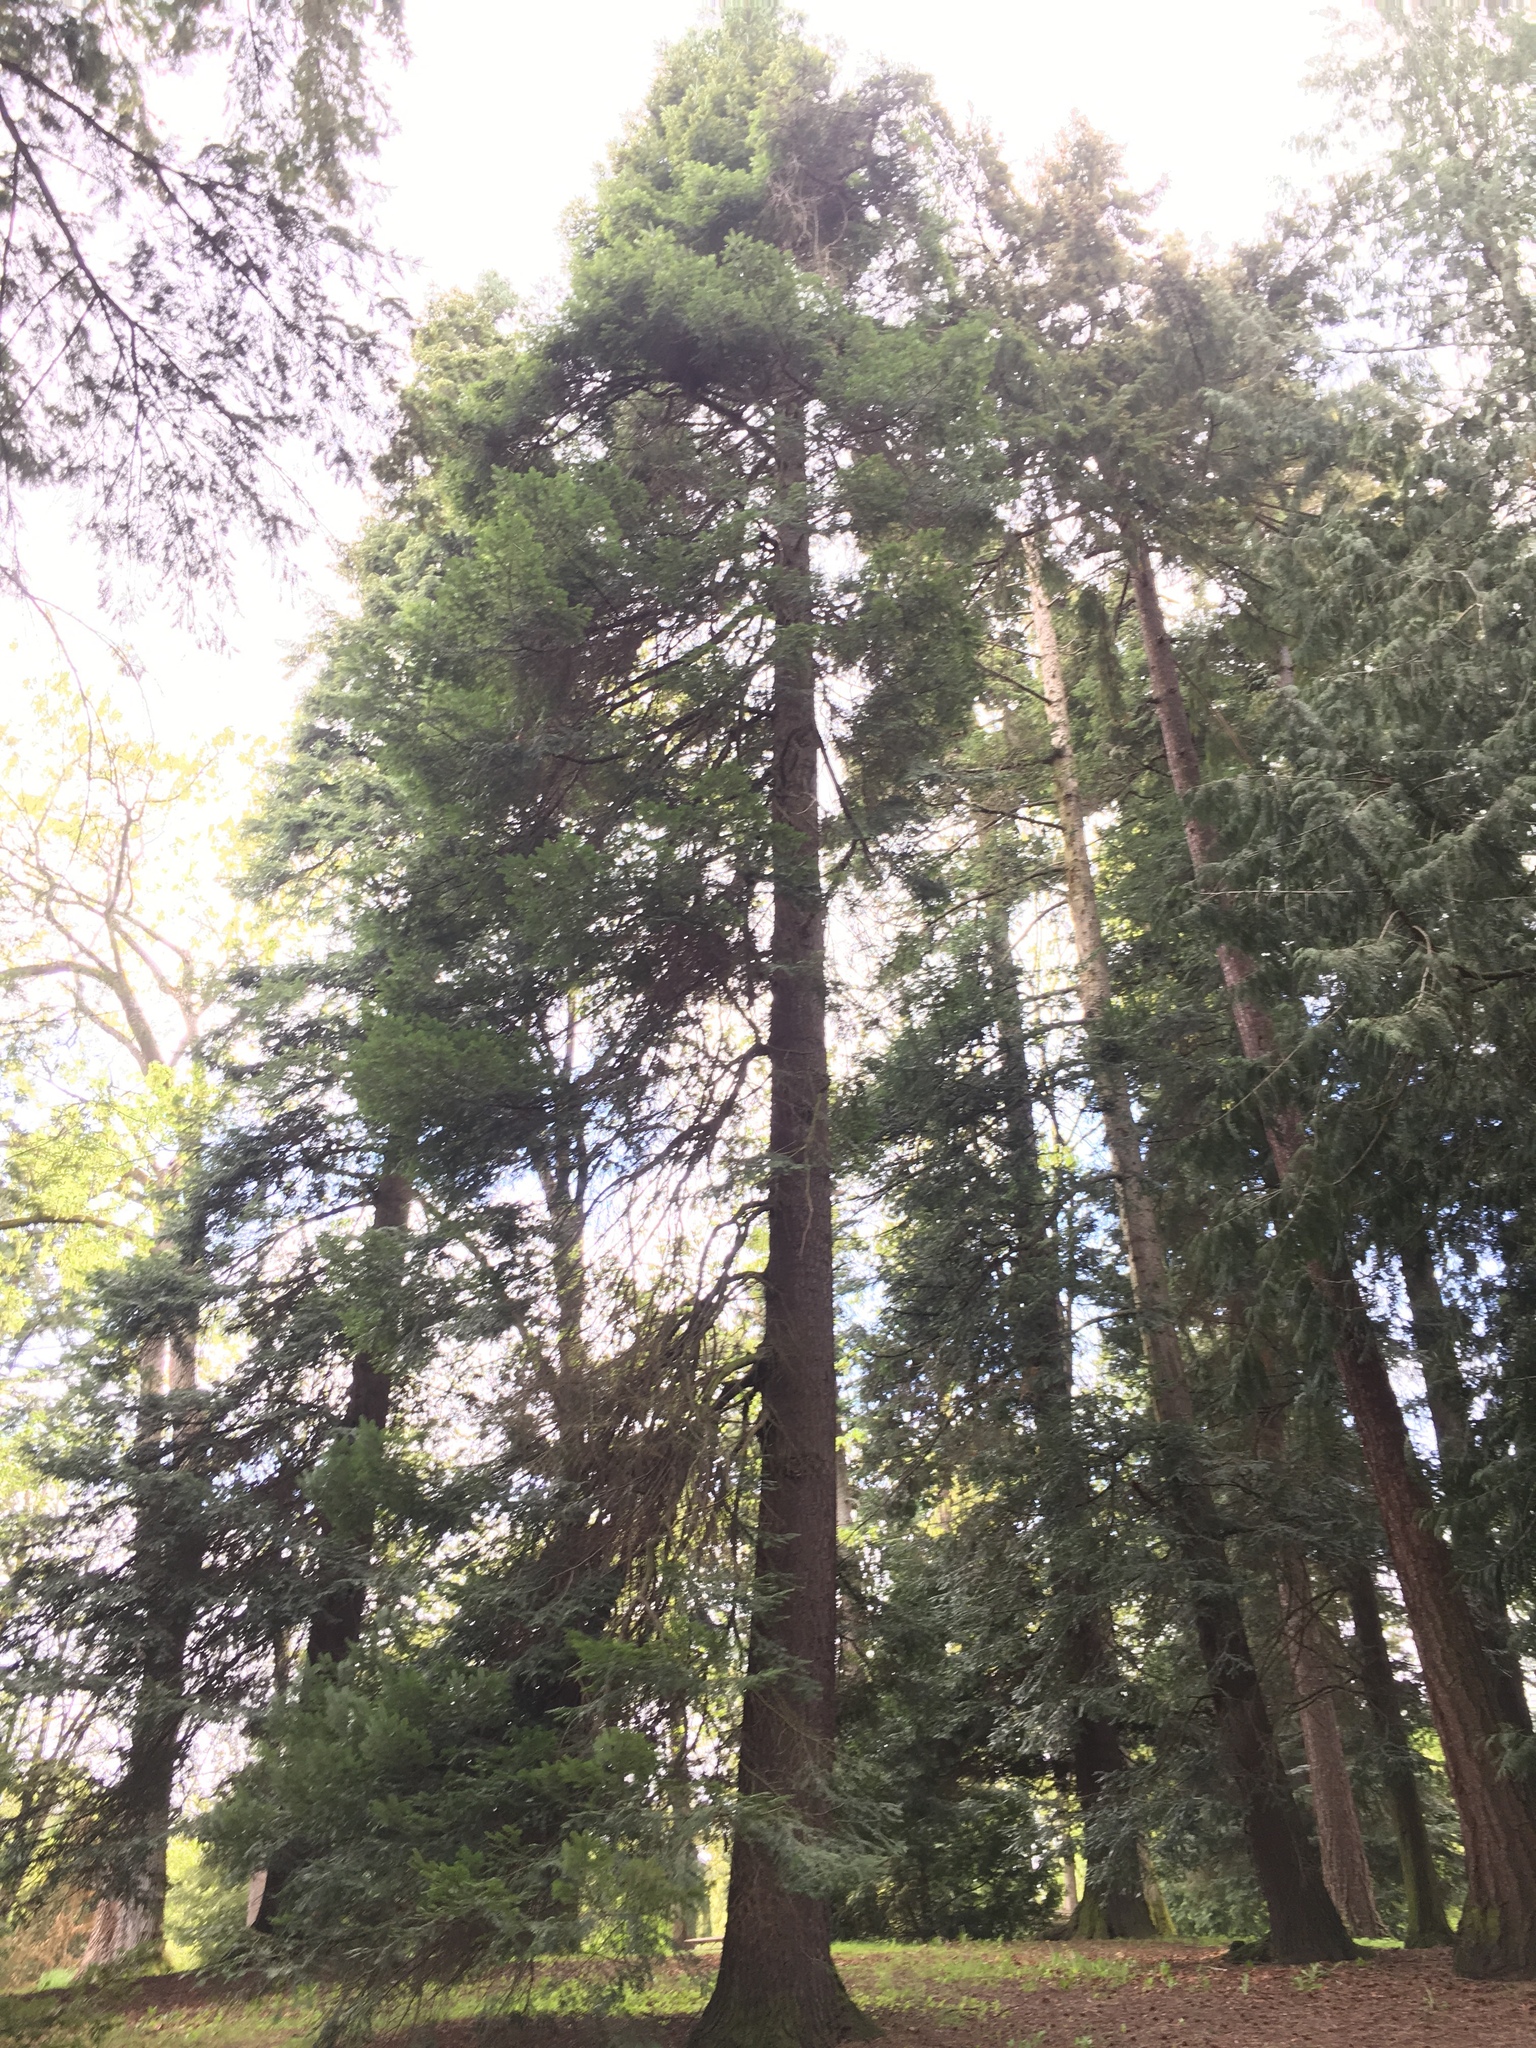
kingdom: Plantae
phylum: Tracheophyta
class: Pinopsida
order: Pinales
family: Pinaceae
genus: Abies
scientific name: Abies grandis
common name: Giant fir
